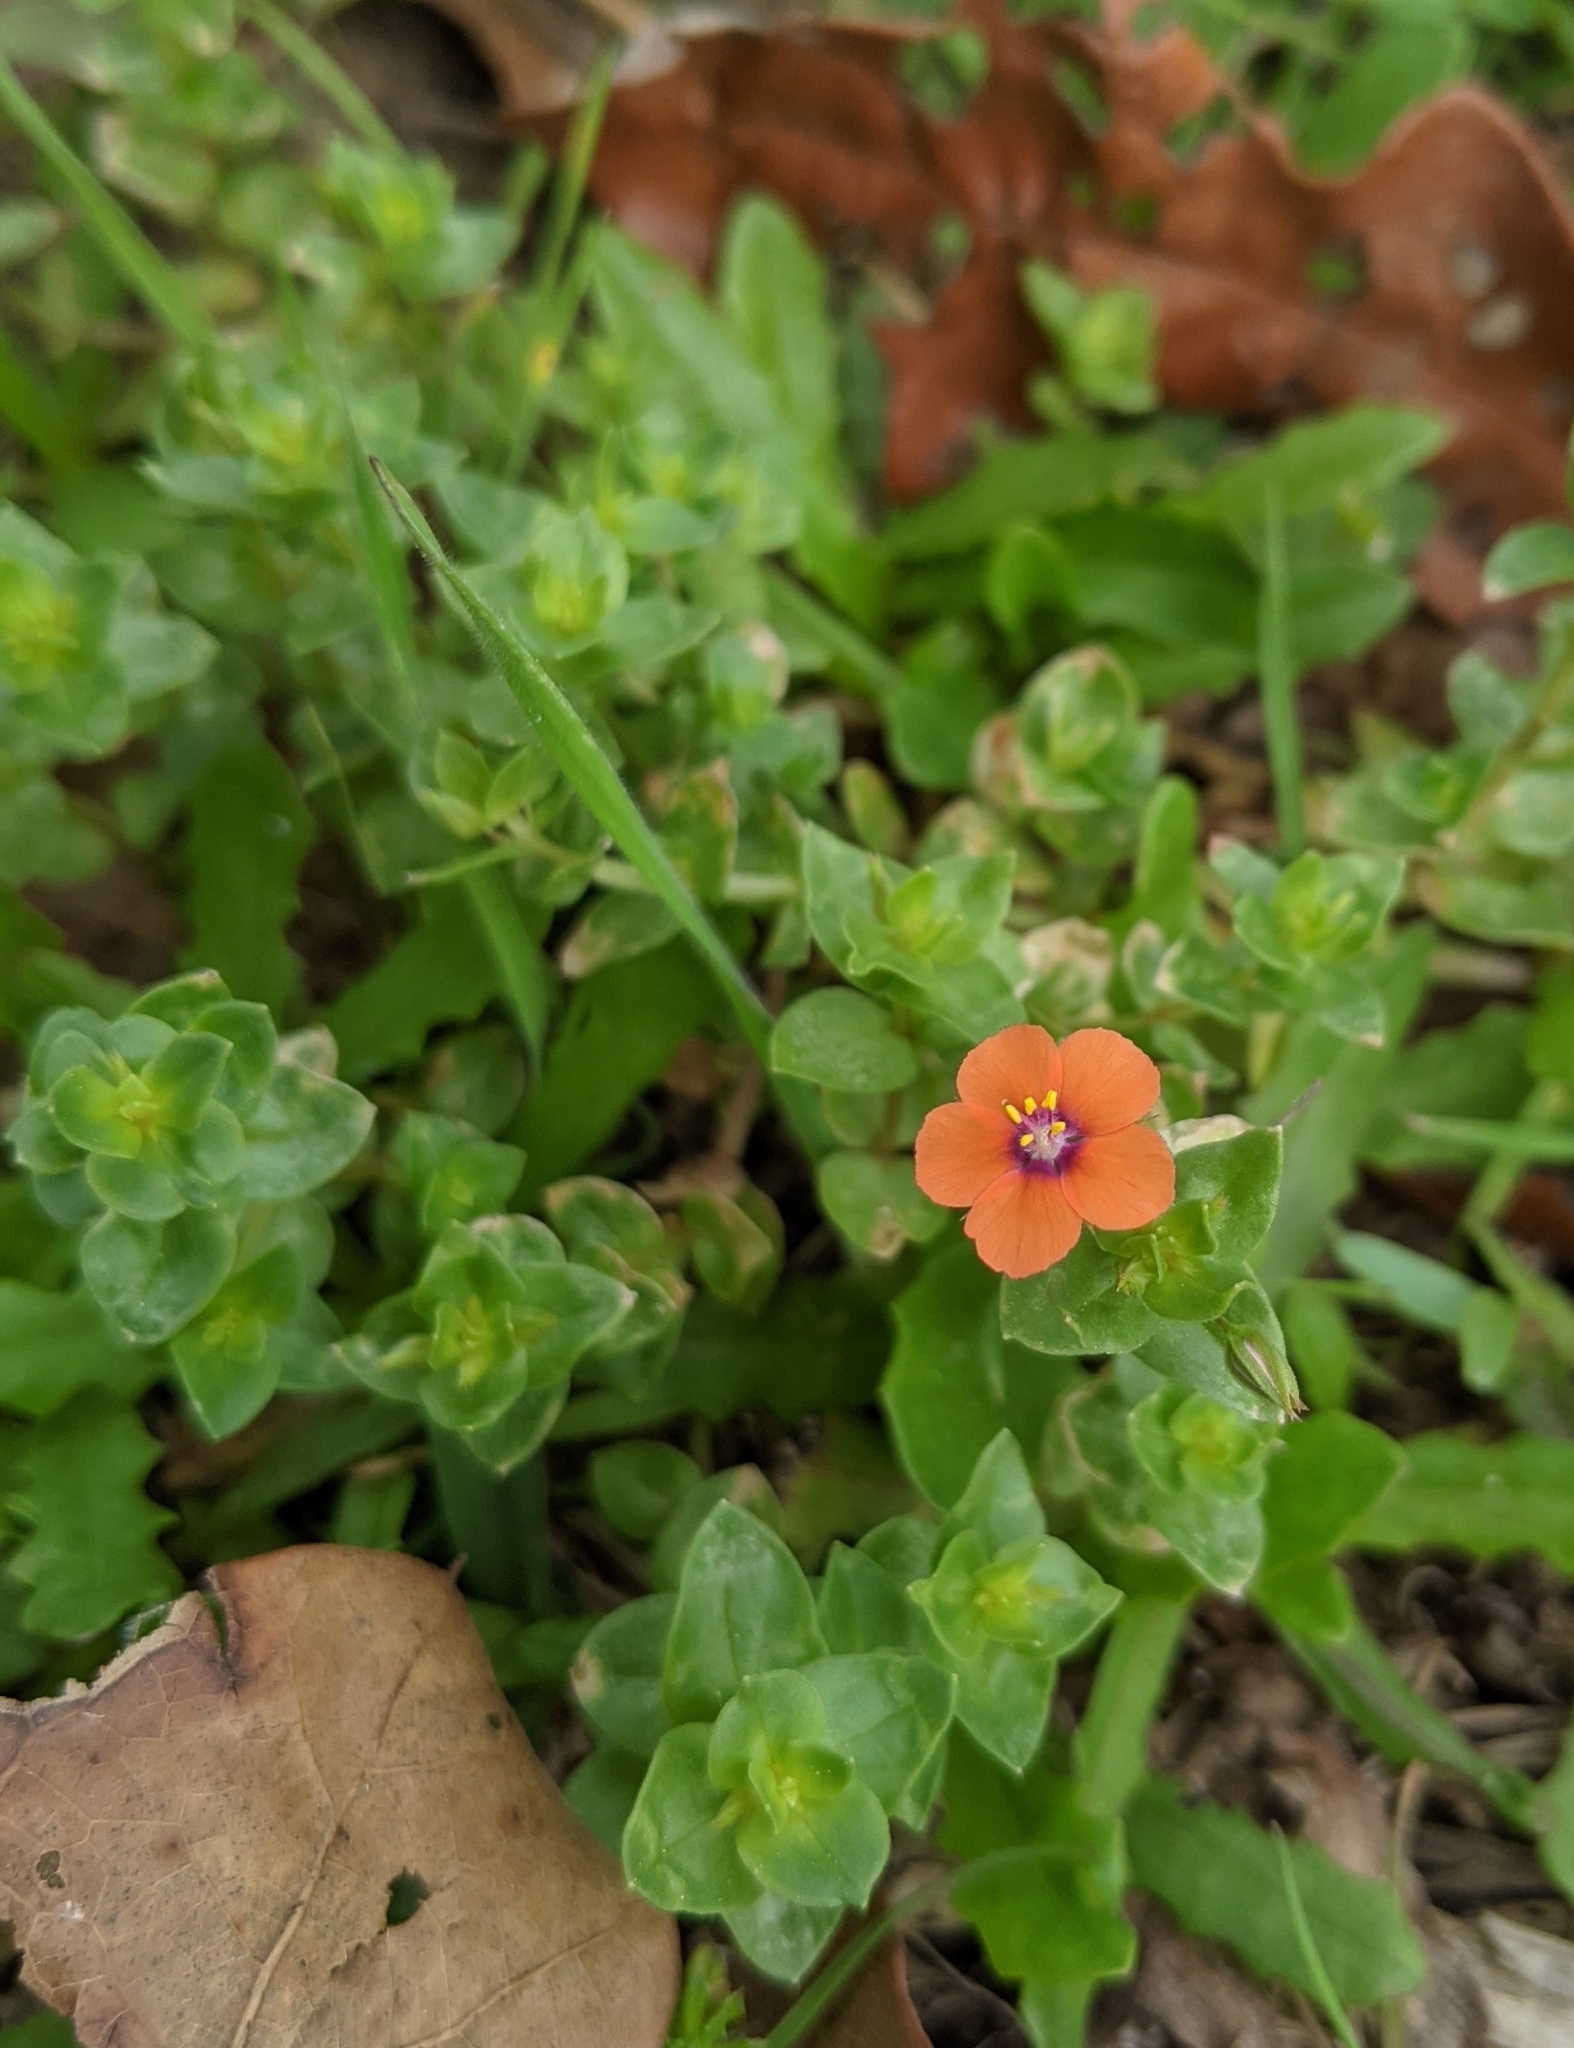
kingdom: Plantae
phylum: Tracheophyta
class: Magnoliopsida
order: Ericales
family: Primulaceae
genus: Lysimachia
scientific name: Lysimachia arvensis
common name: Scarlet pimpernel
